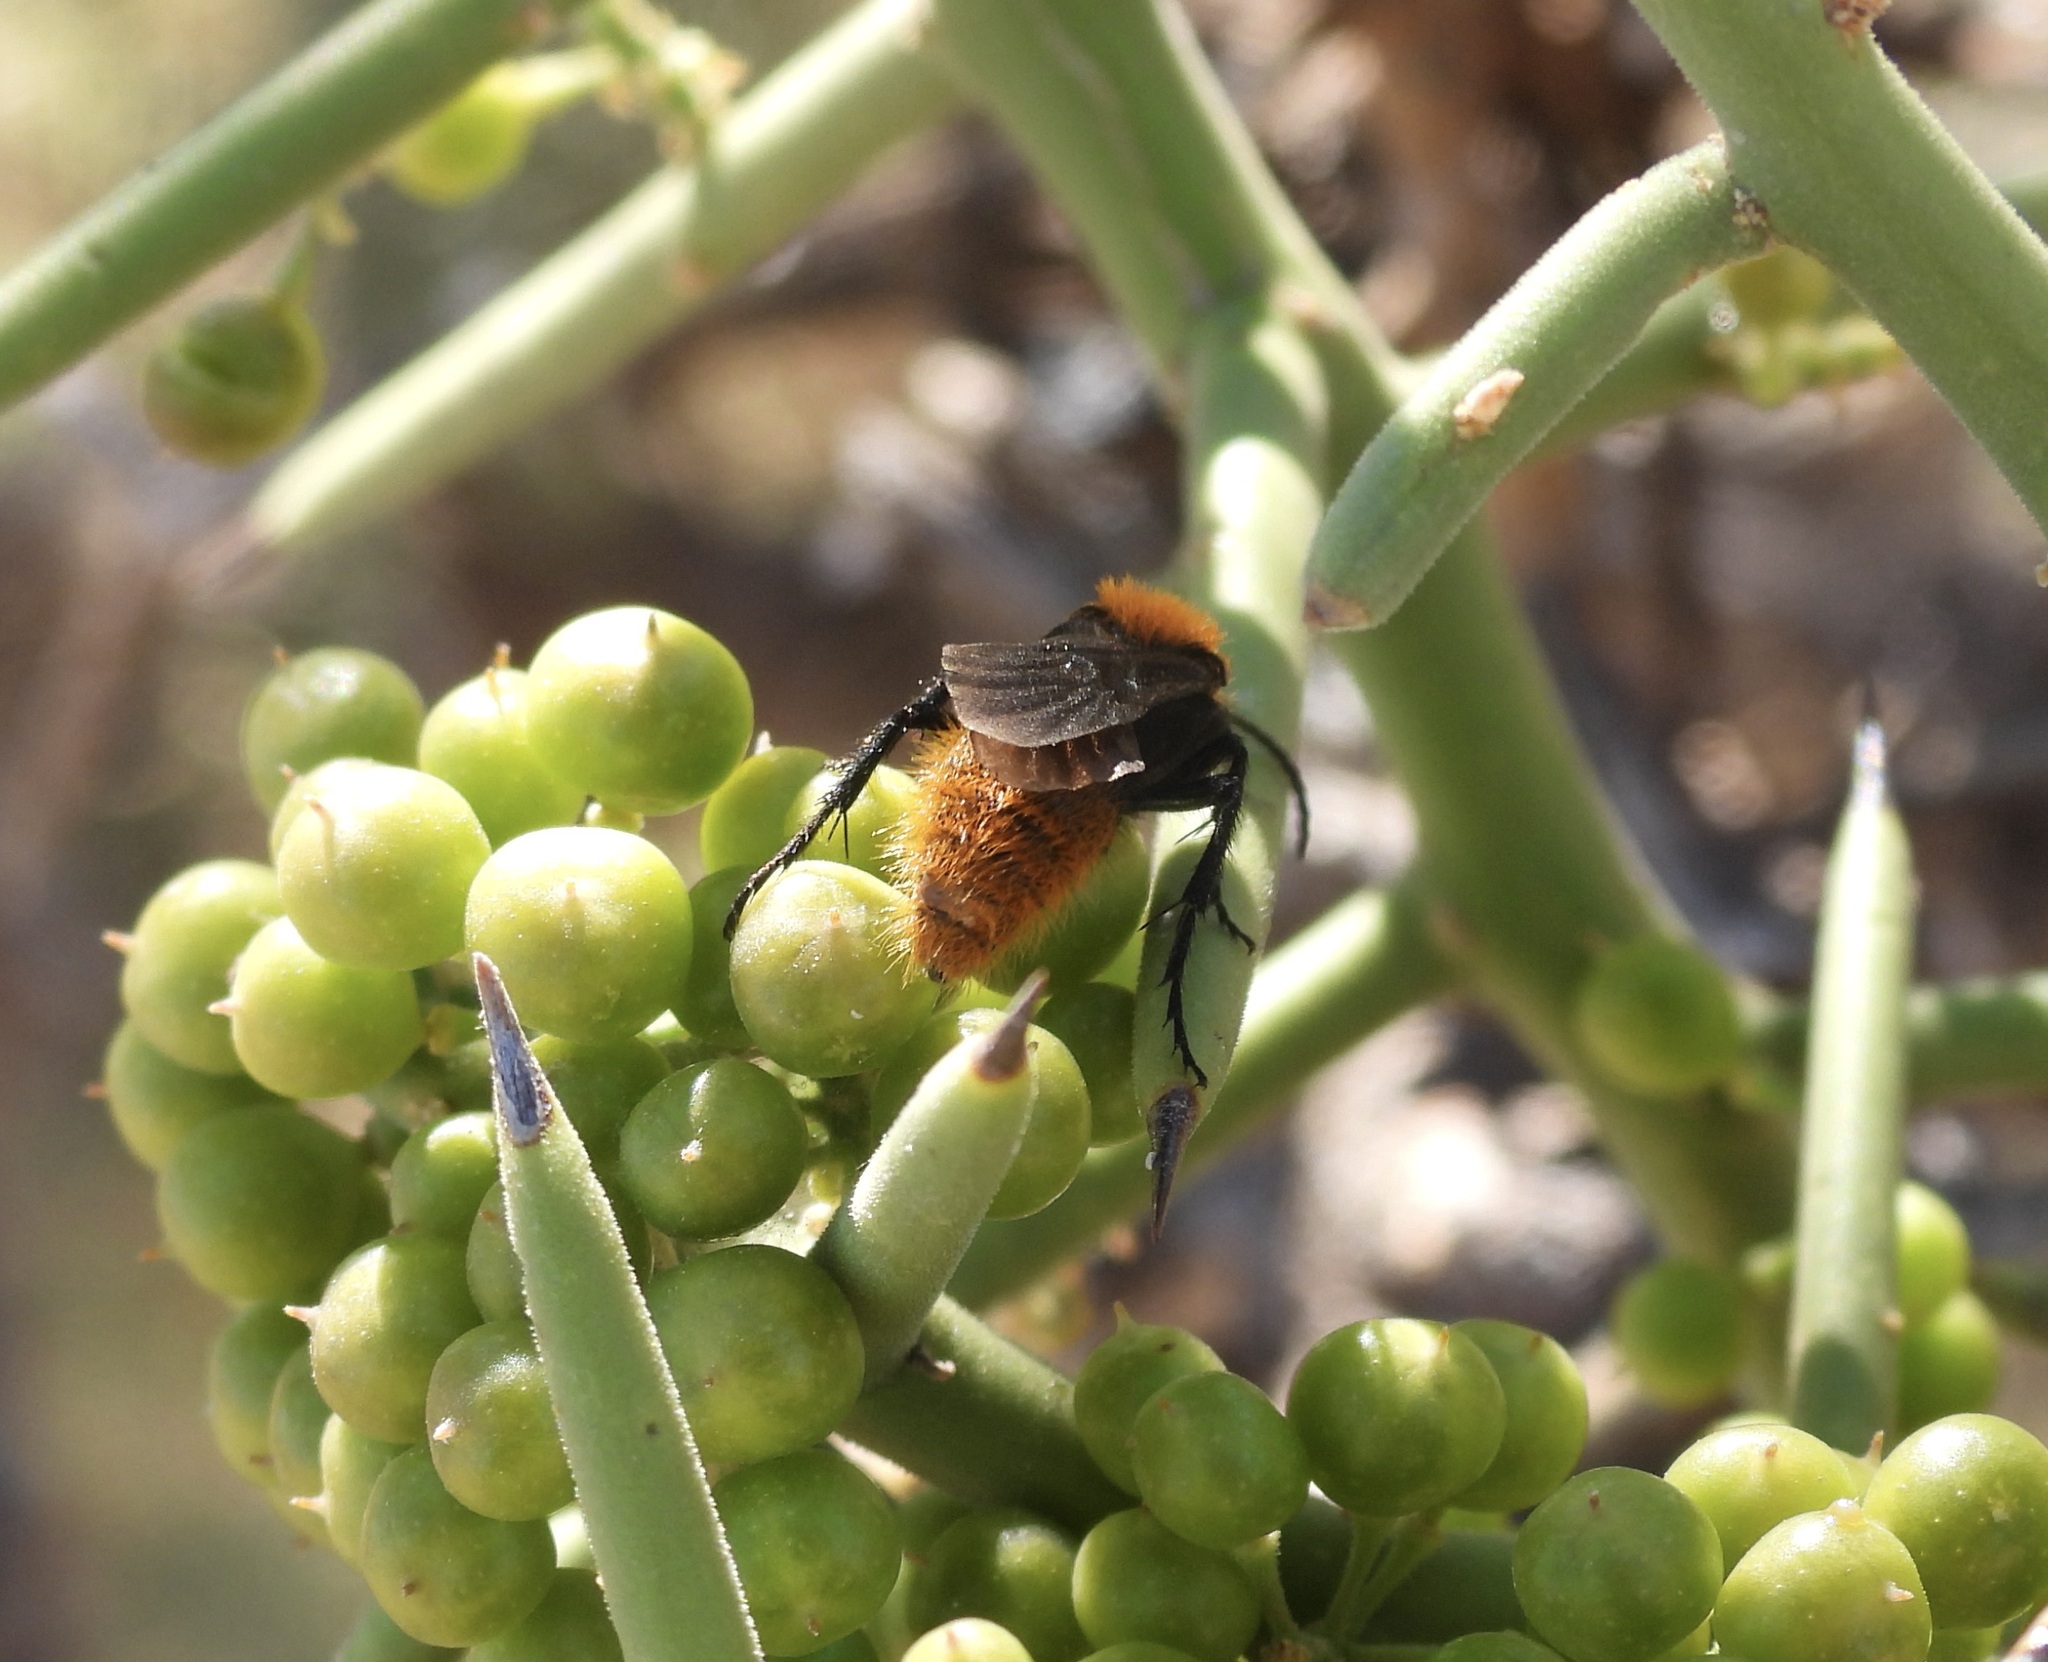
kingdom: Animalia
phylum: Arthropoda
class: Insecta
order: Hymenoptera
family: Mutillidae
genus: Dasymutilla
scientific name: Dasymutilla vestita
